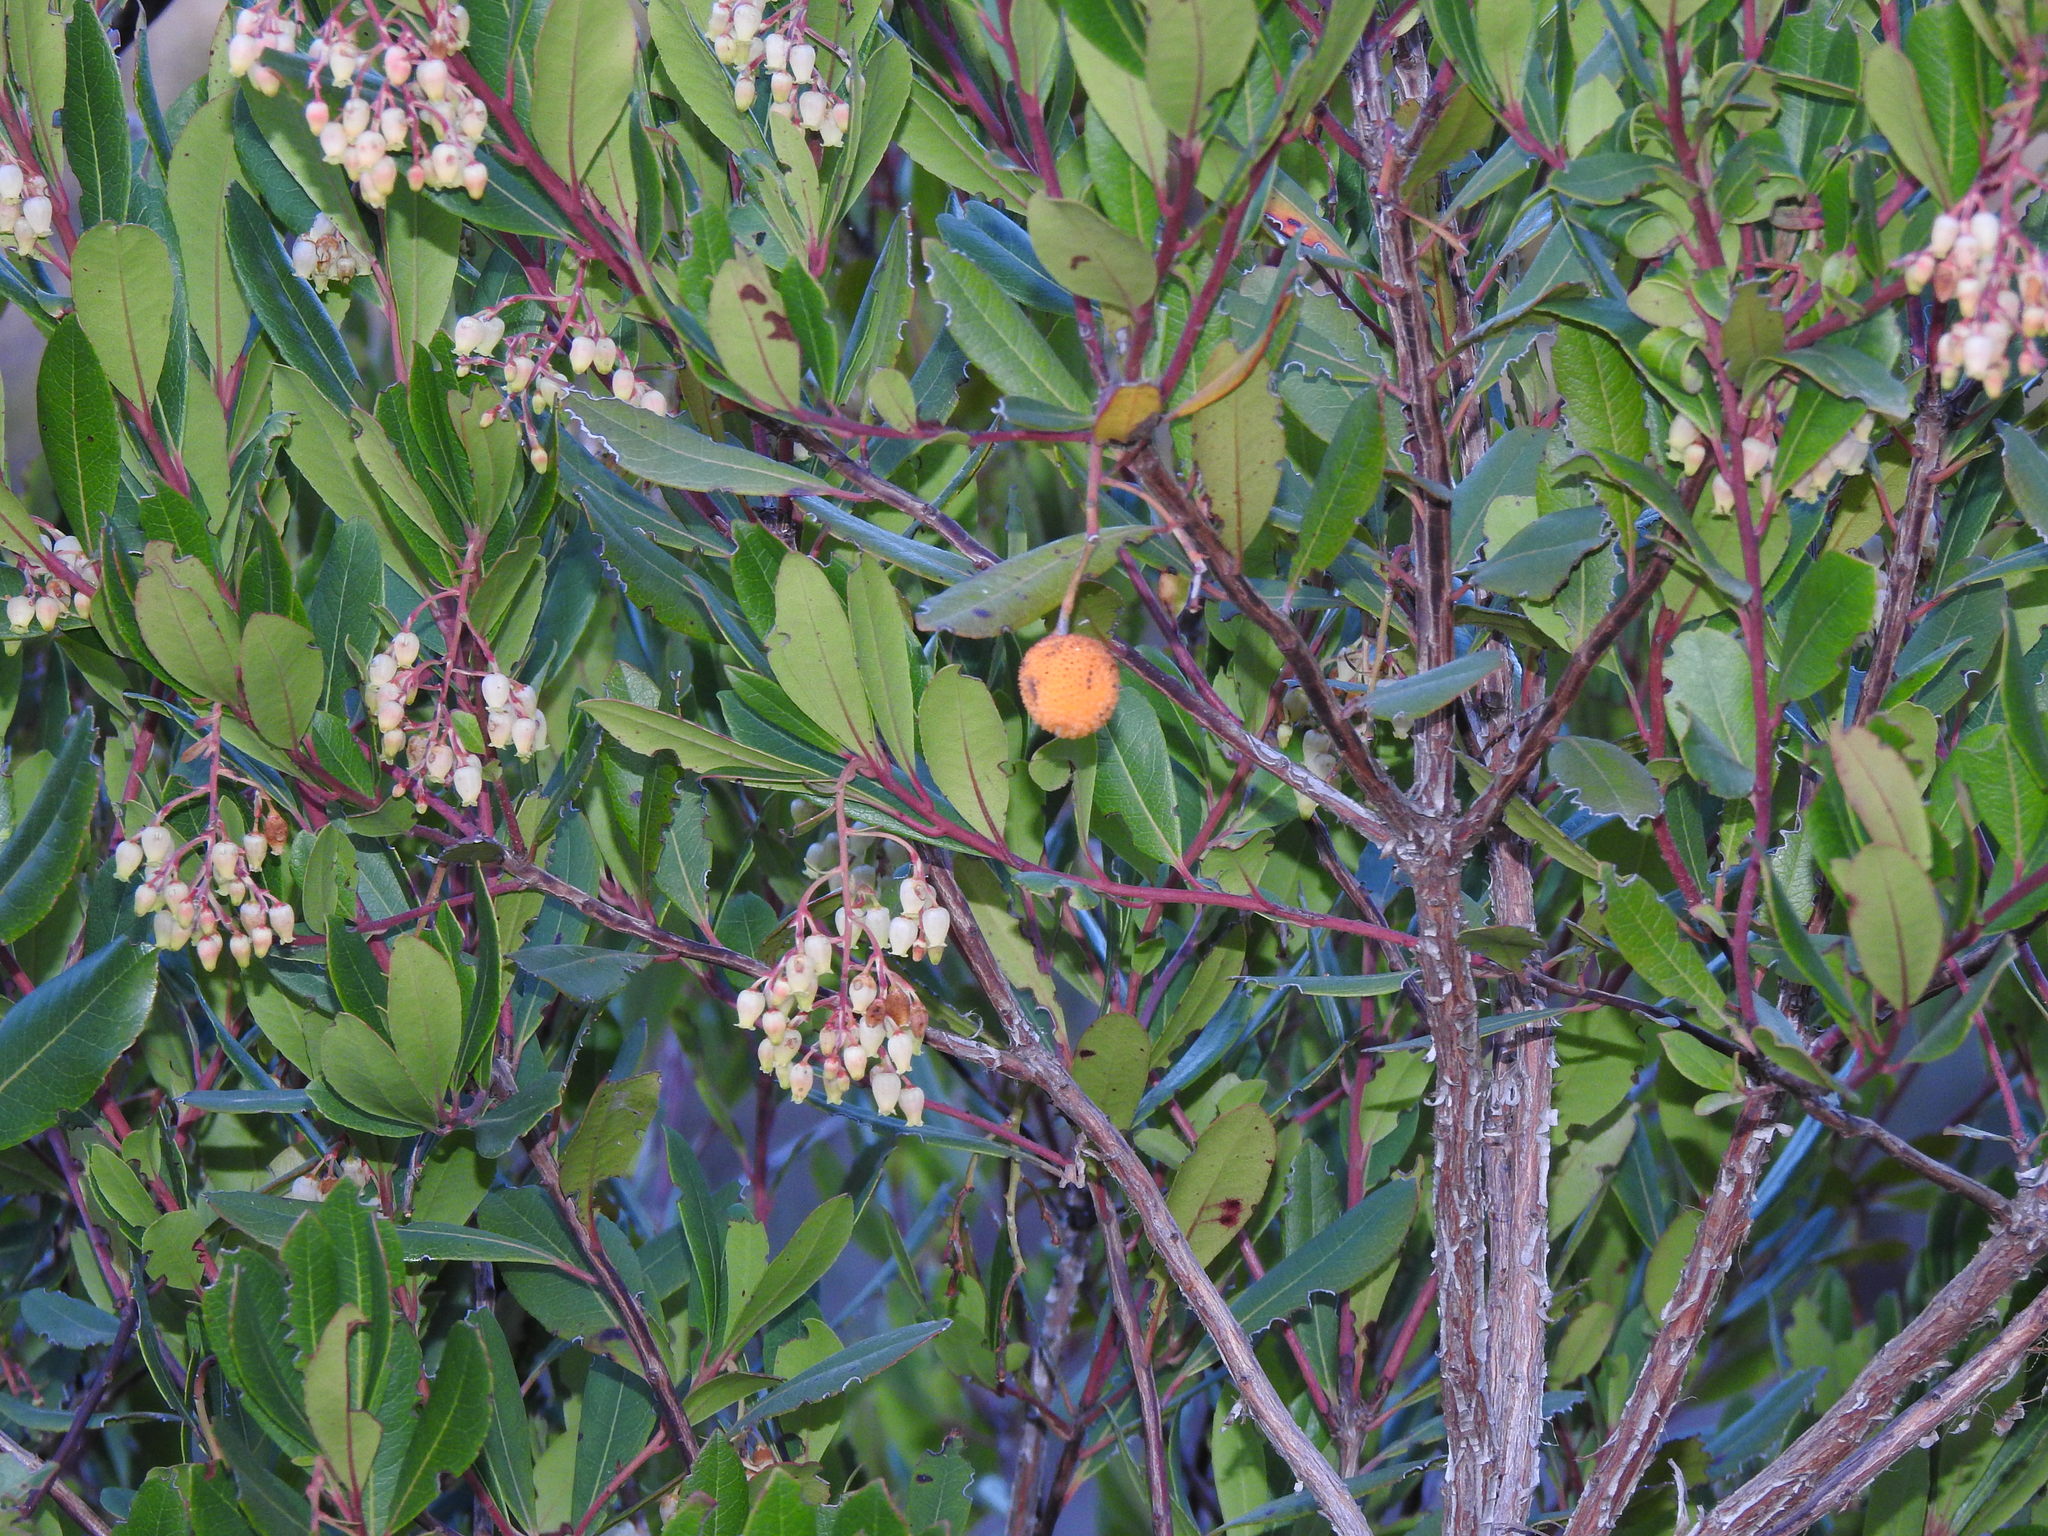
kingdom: Plantae
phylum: Tracheophyta
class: Magnoliopsida
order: Ericales
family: Ericaceae
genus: Arbutus
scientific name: Arbutus unedo
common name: Strawberry-tree
